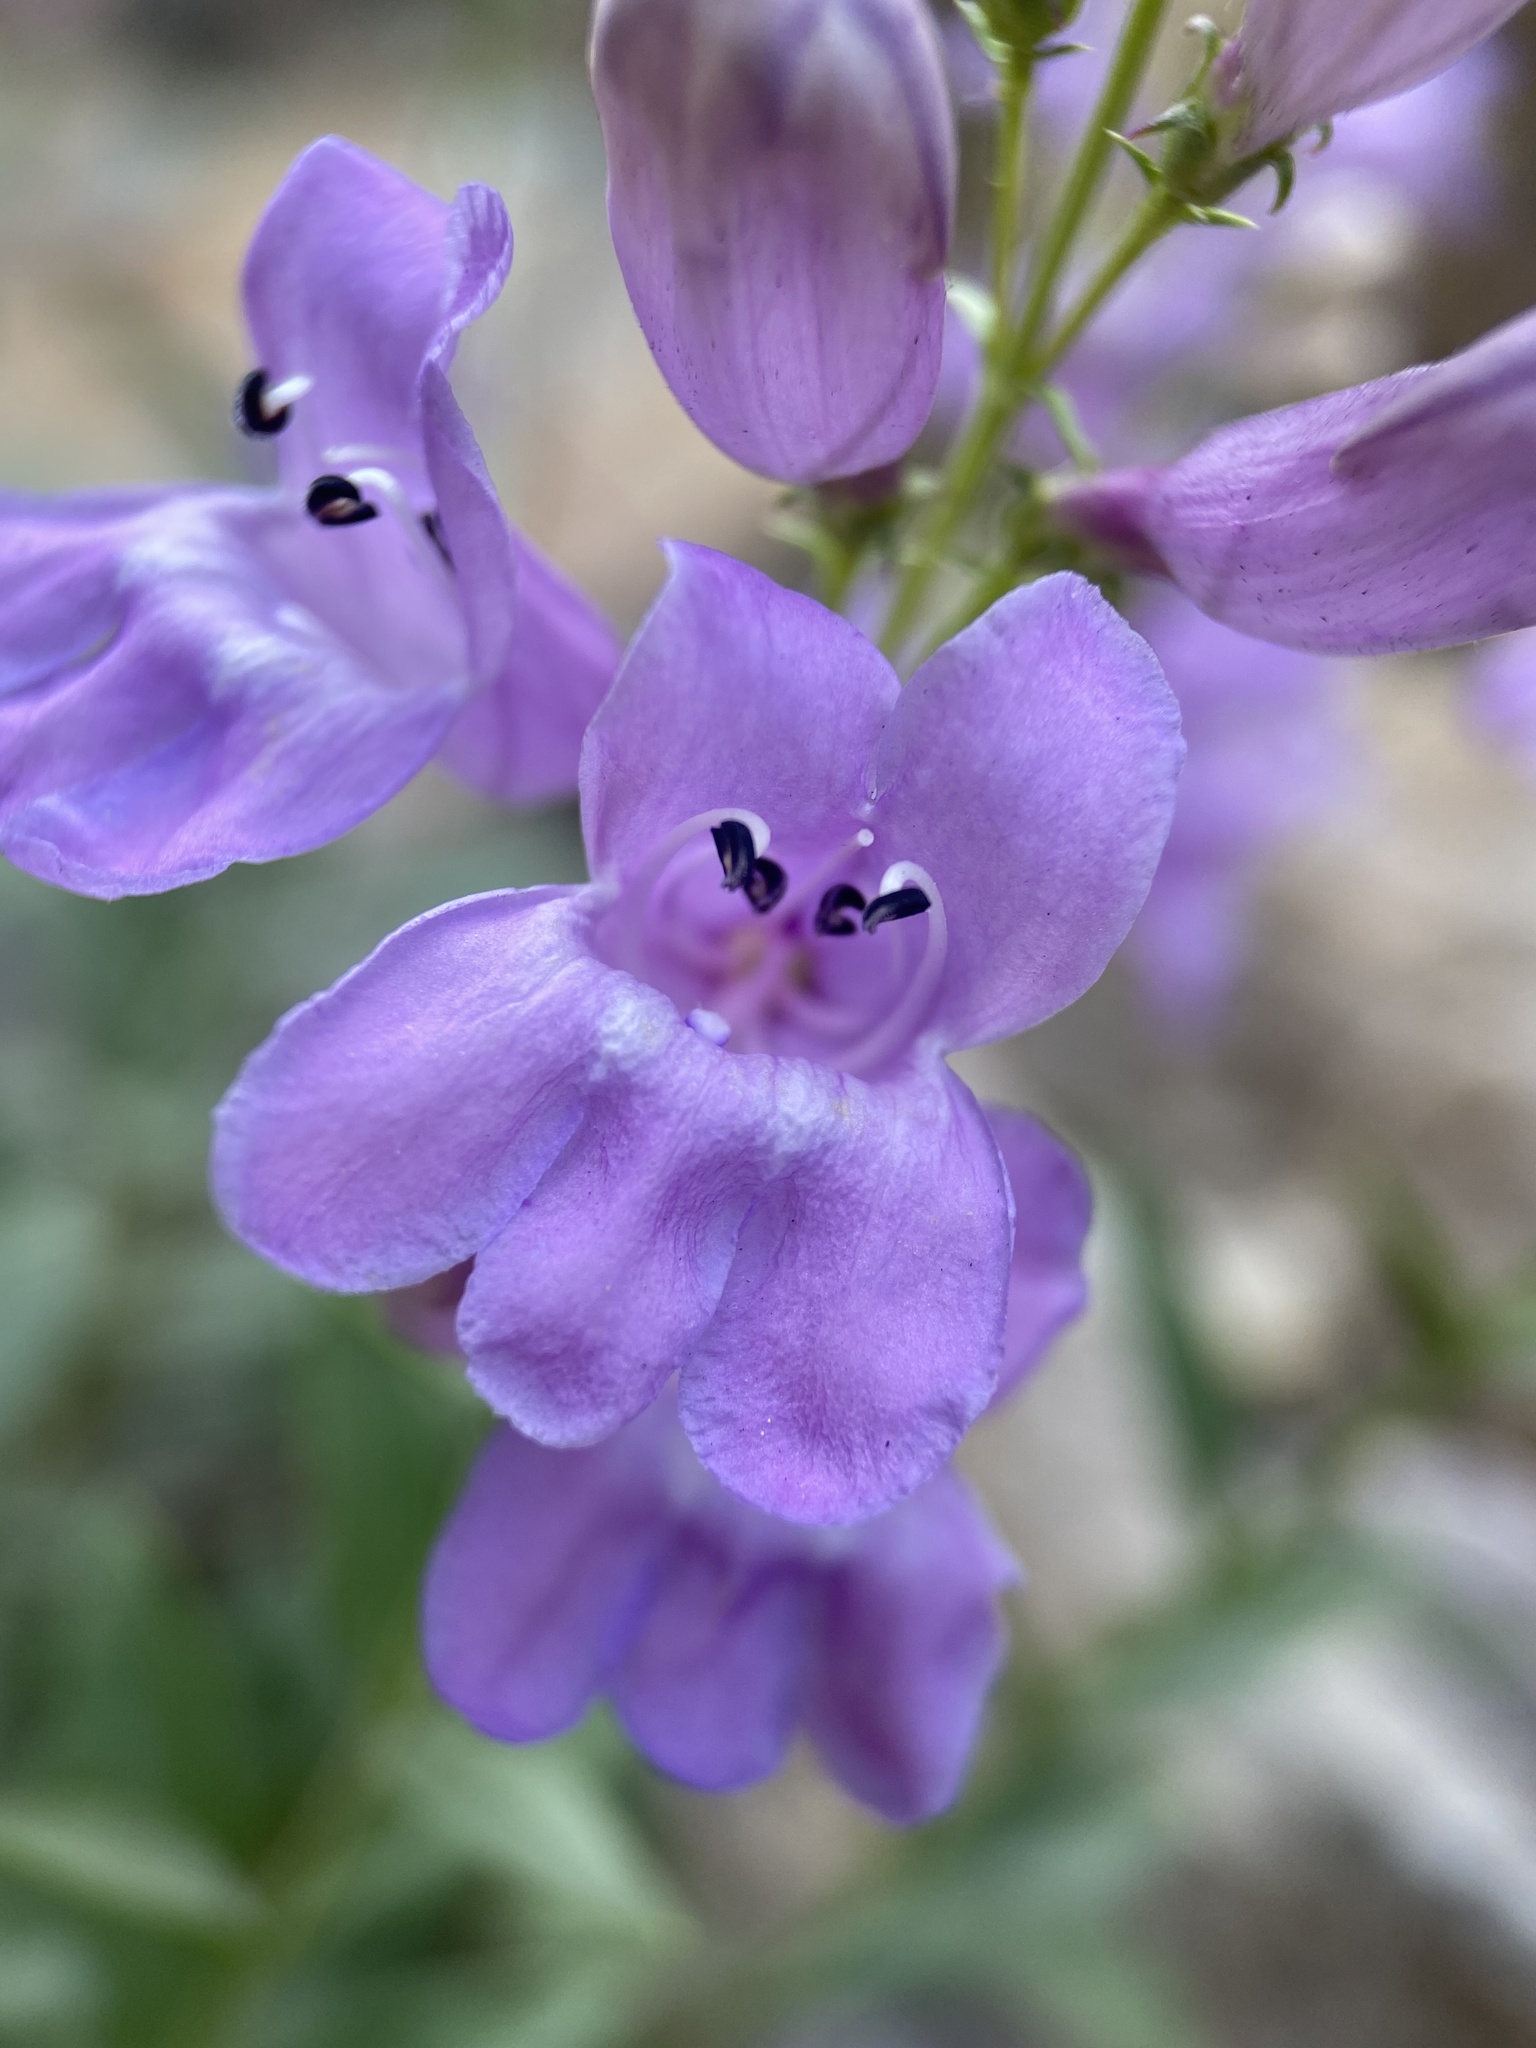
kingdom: Plantae
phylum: Tracheophyta
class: Magnoliopsida
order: Lamiales
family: Plantaginaceae
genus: Penstemon
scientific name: Penstemon platyphyllus
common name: Broadleaf penstemon
